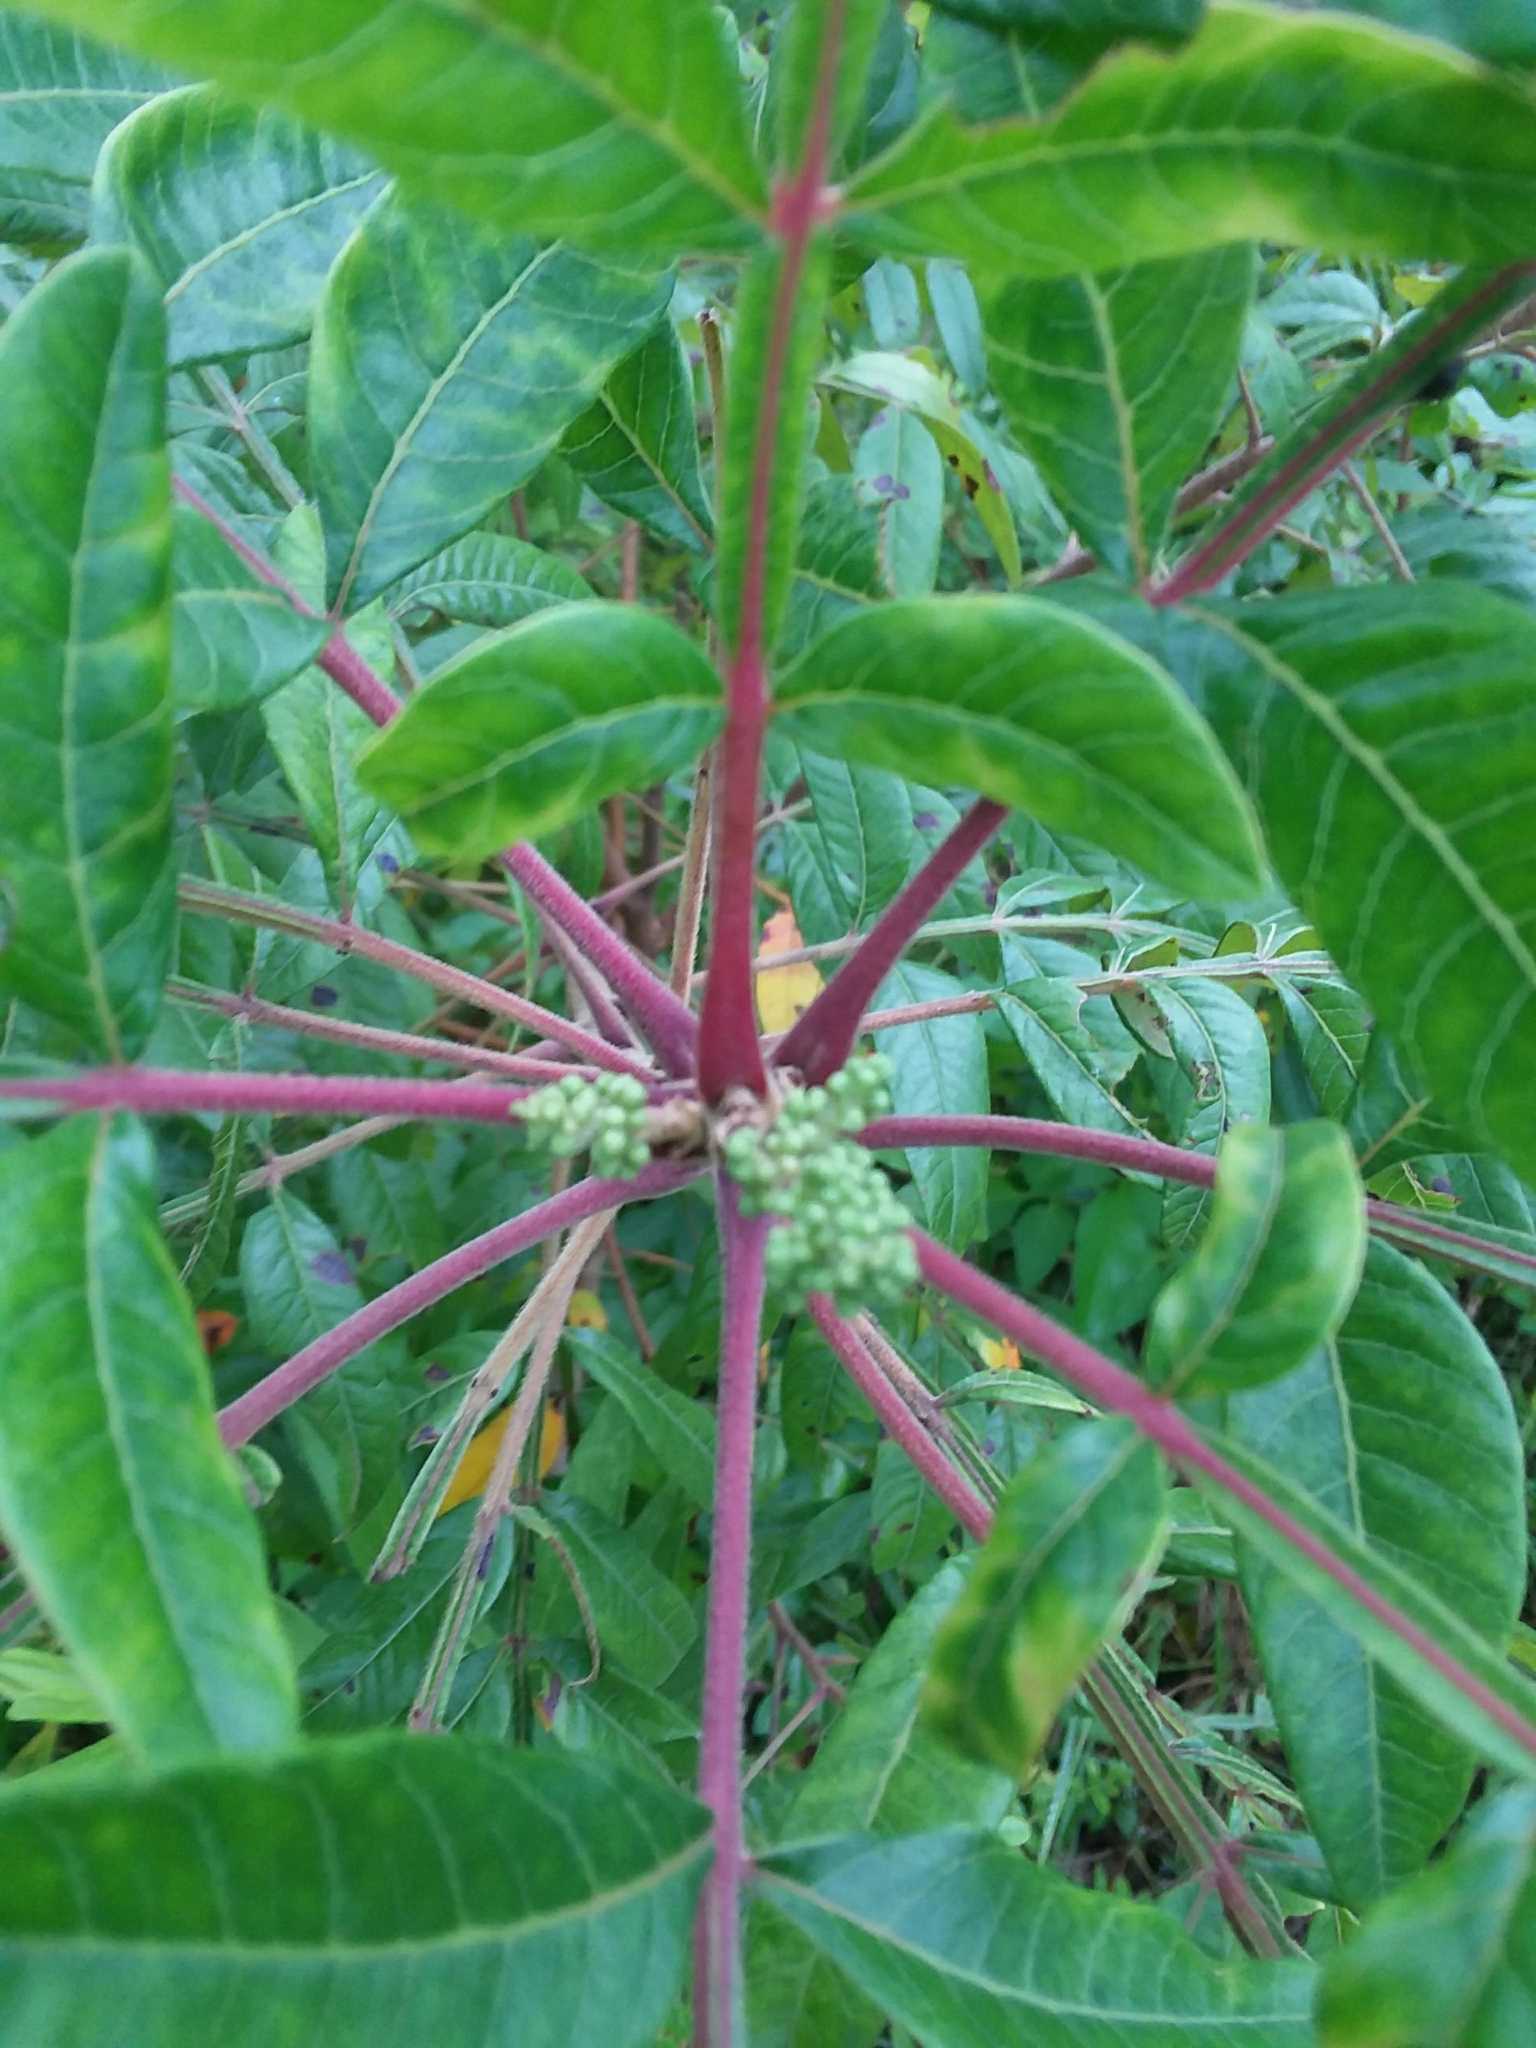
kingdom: Plantae
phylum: Tracheophyta
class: Magnoliopsida
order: Sapindales
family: Anacardiaceae
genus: Rhus
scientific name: Rhus copallina
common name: Shining sumac
